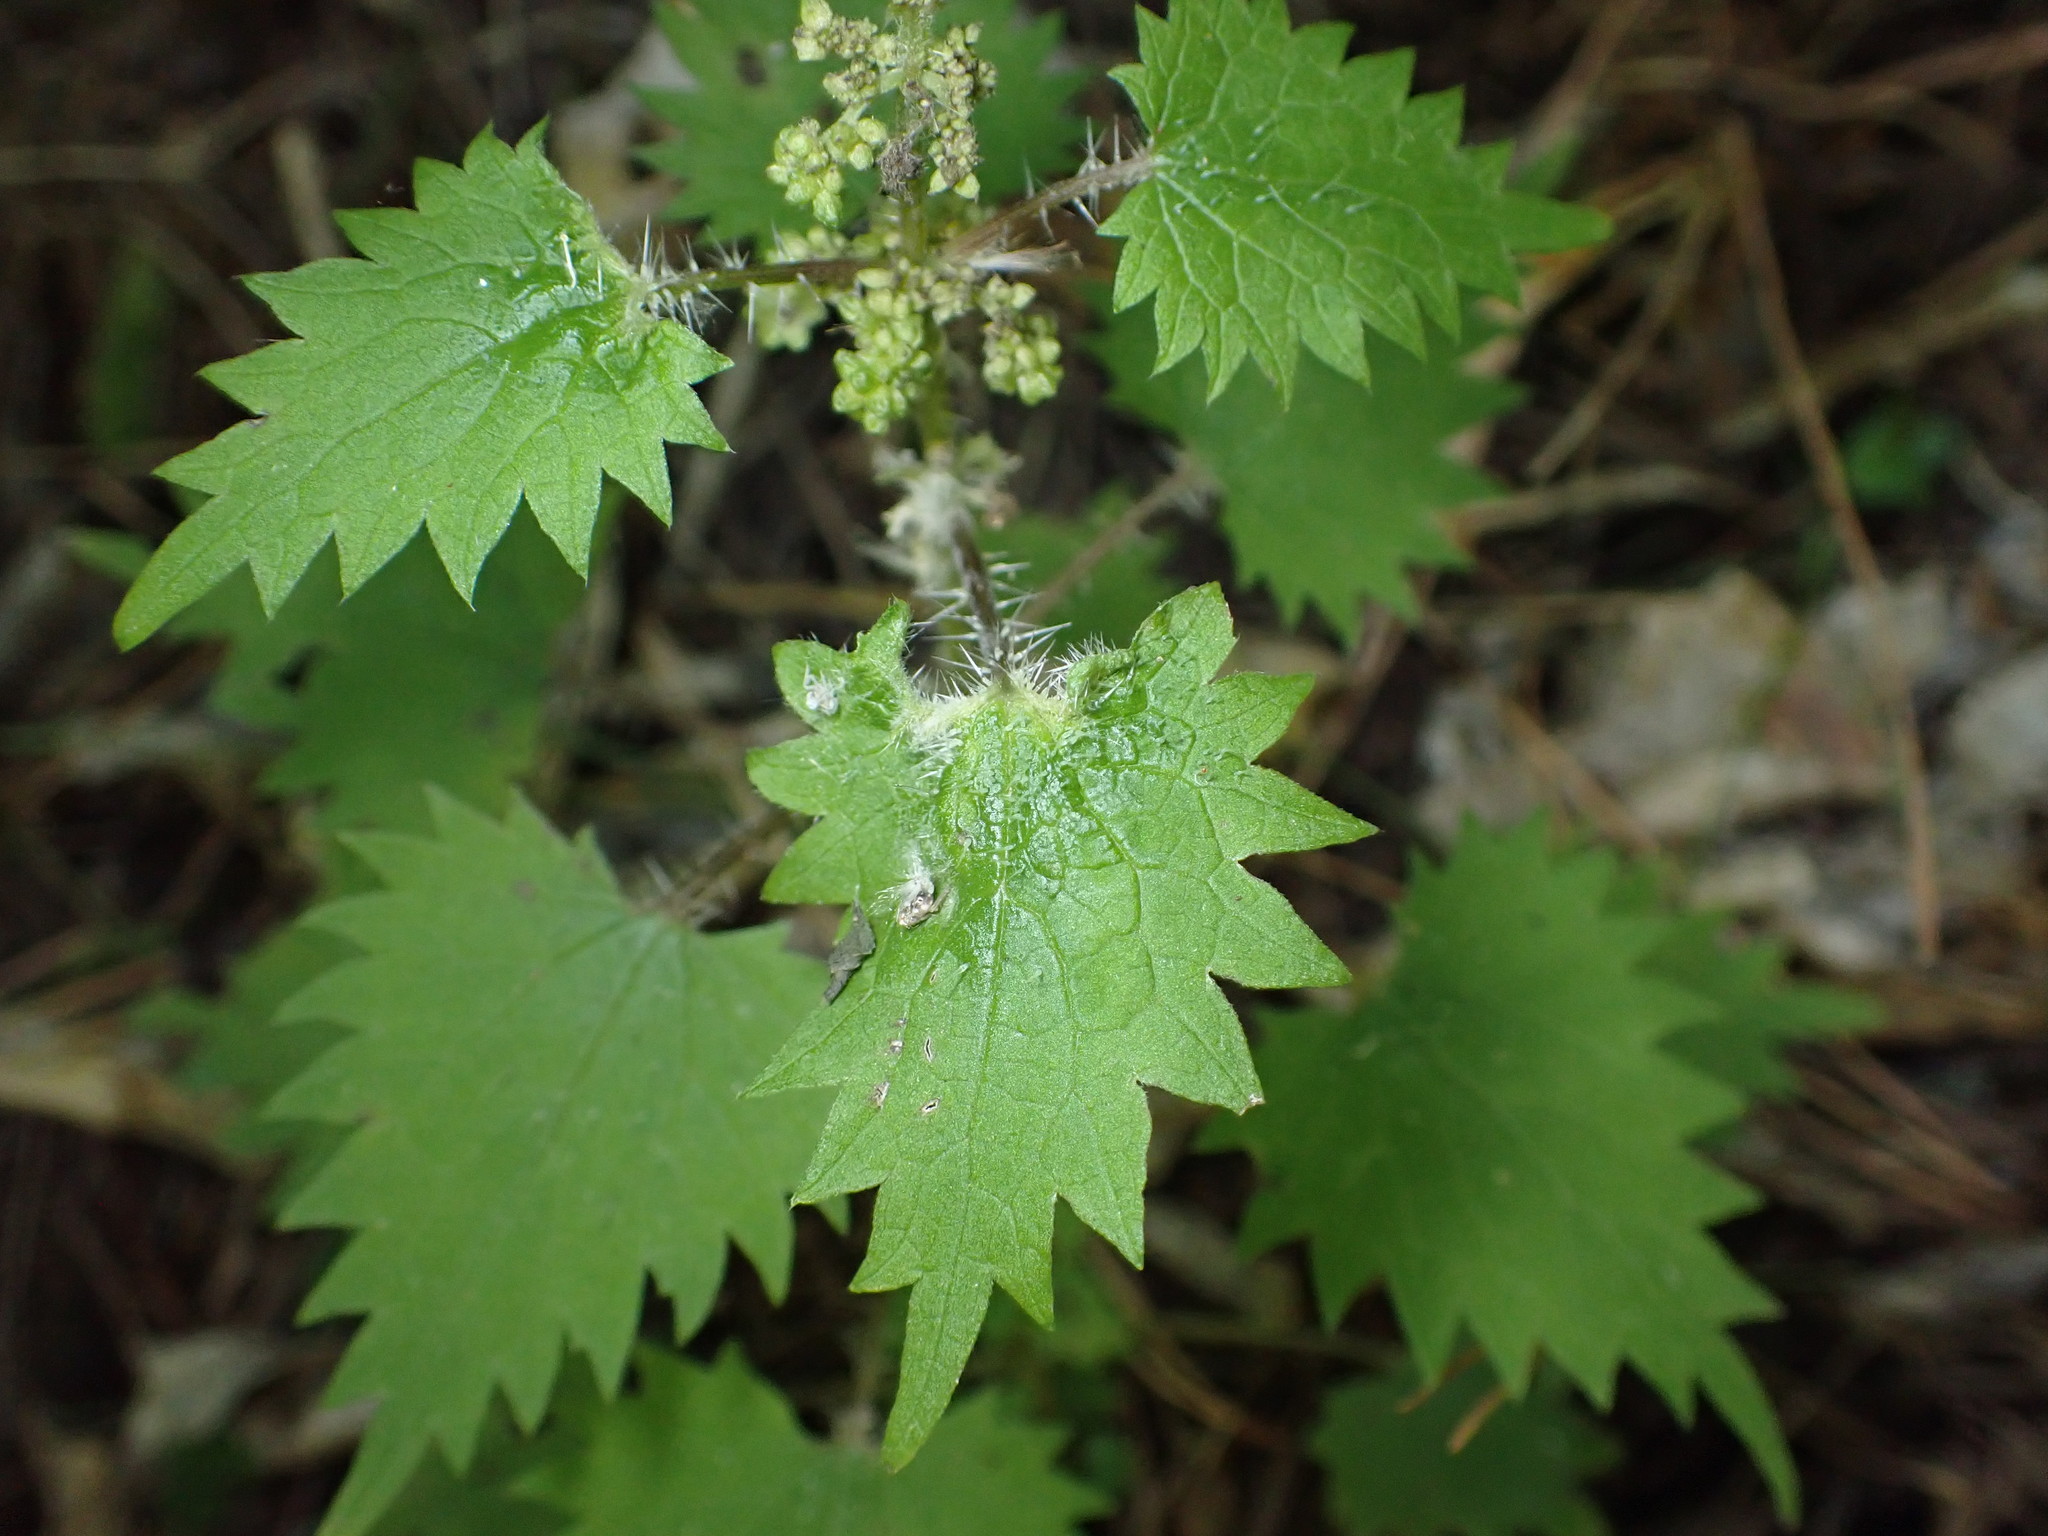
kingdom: Plantae
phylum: Tracheophyta
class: Magnoliopsida
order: Rosales
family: Urticaceae
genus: Urtica
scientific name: Urtica sykesii
